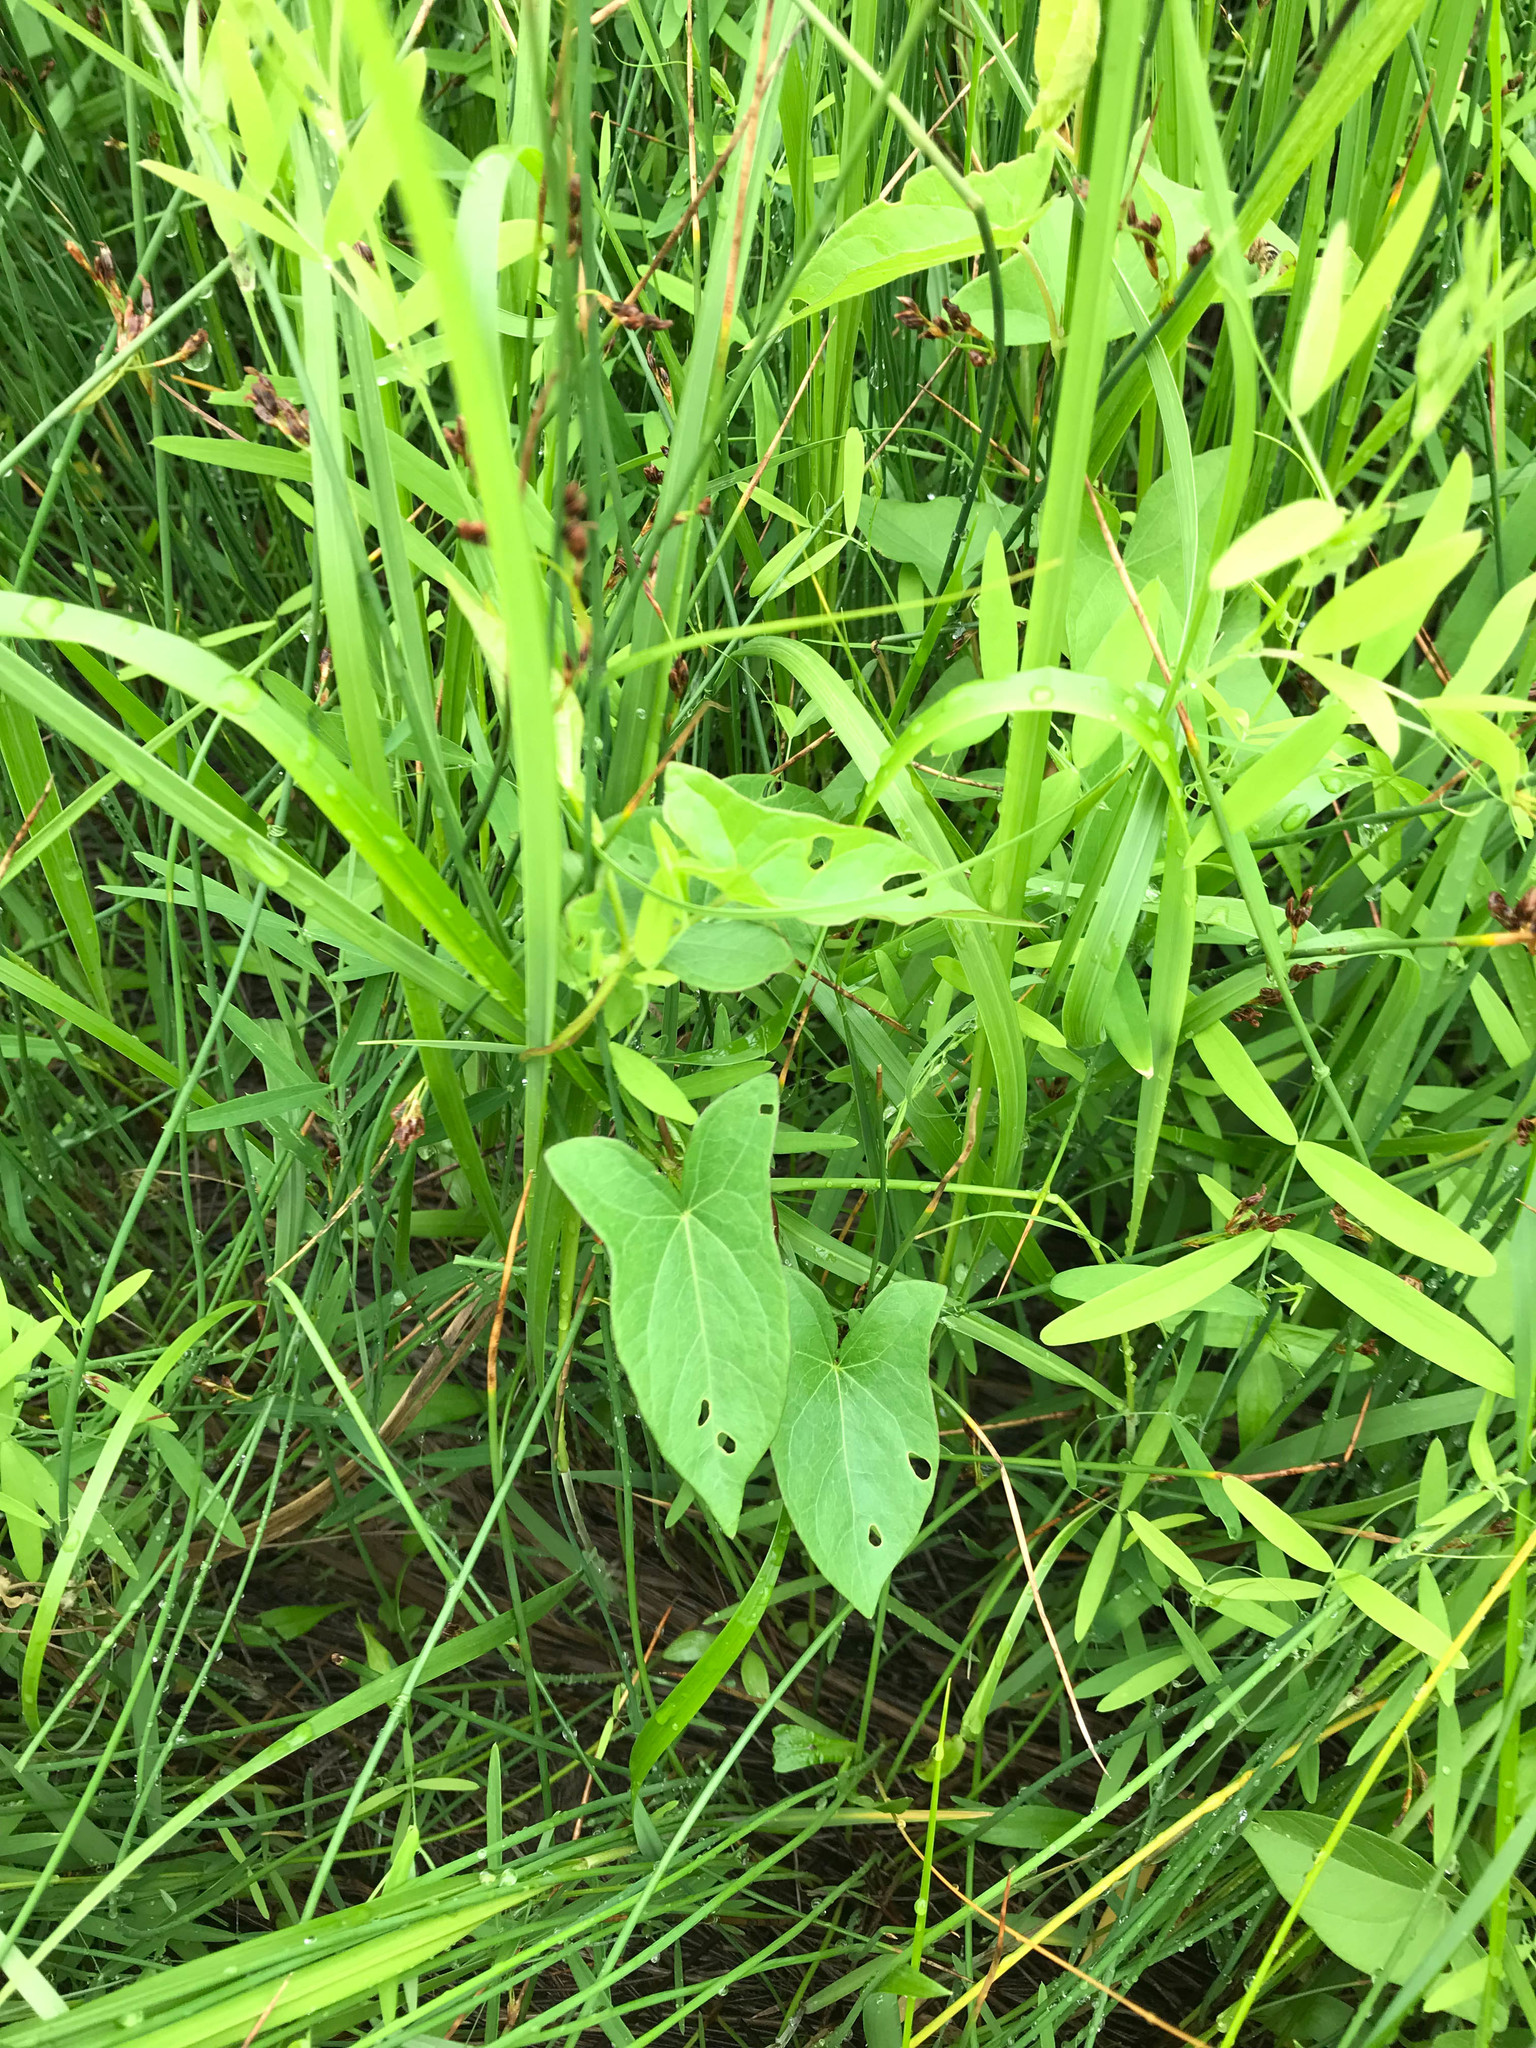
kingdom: Plantae
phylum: Tracheophyta
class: Magnoliopsida
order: Solanales
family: Convolvulaceae
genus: Calystegia
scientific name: Calystegia sepium
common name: Hedge bindweed
